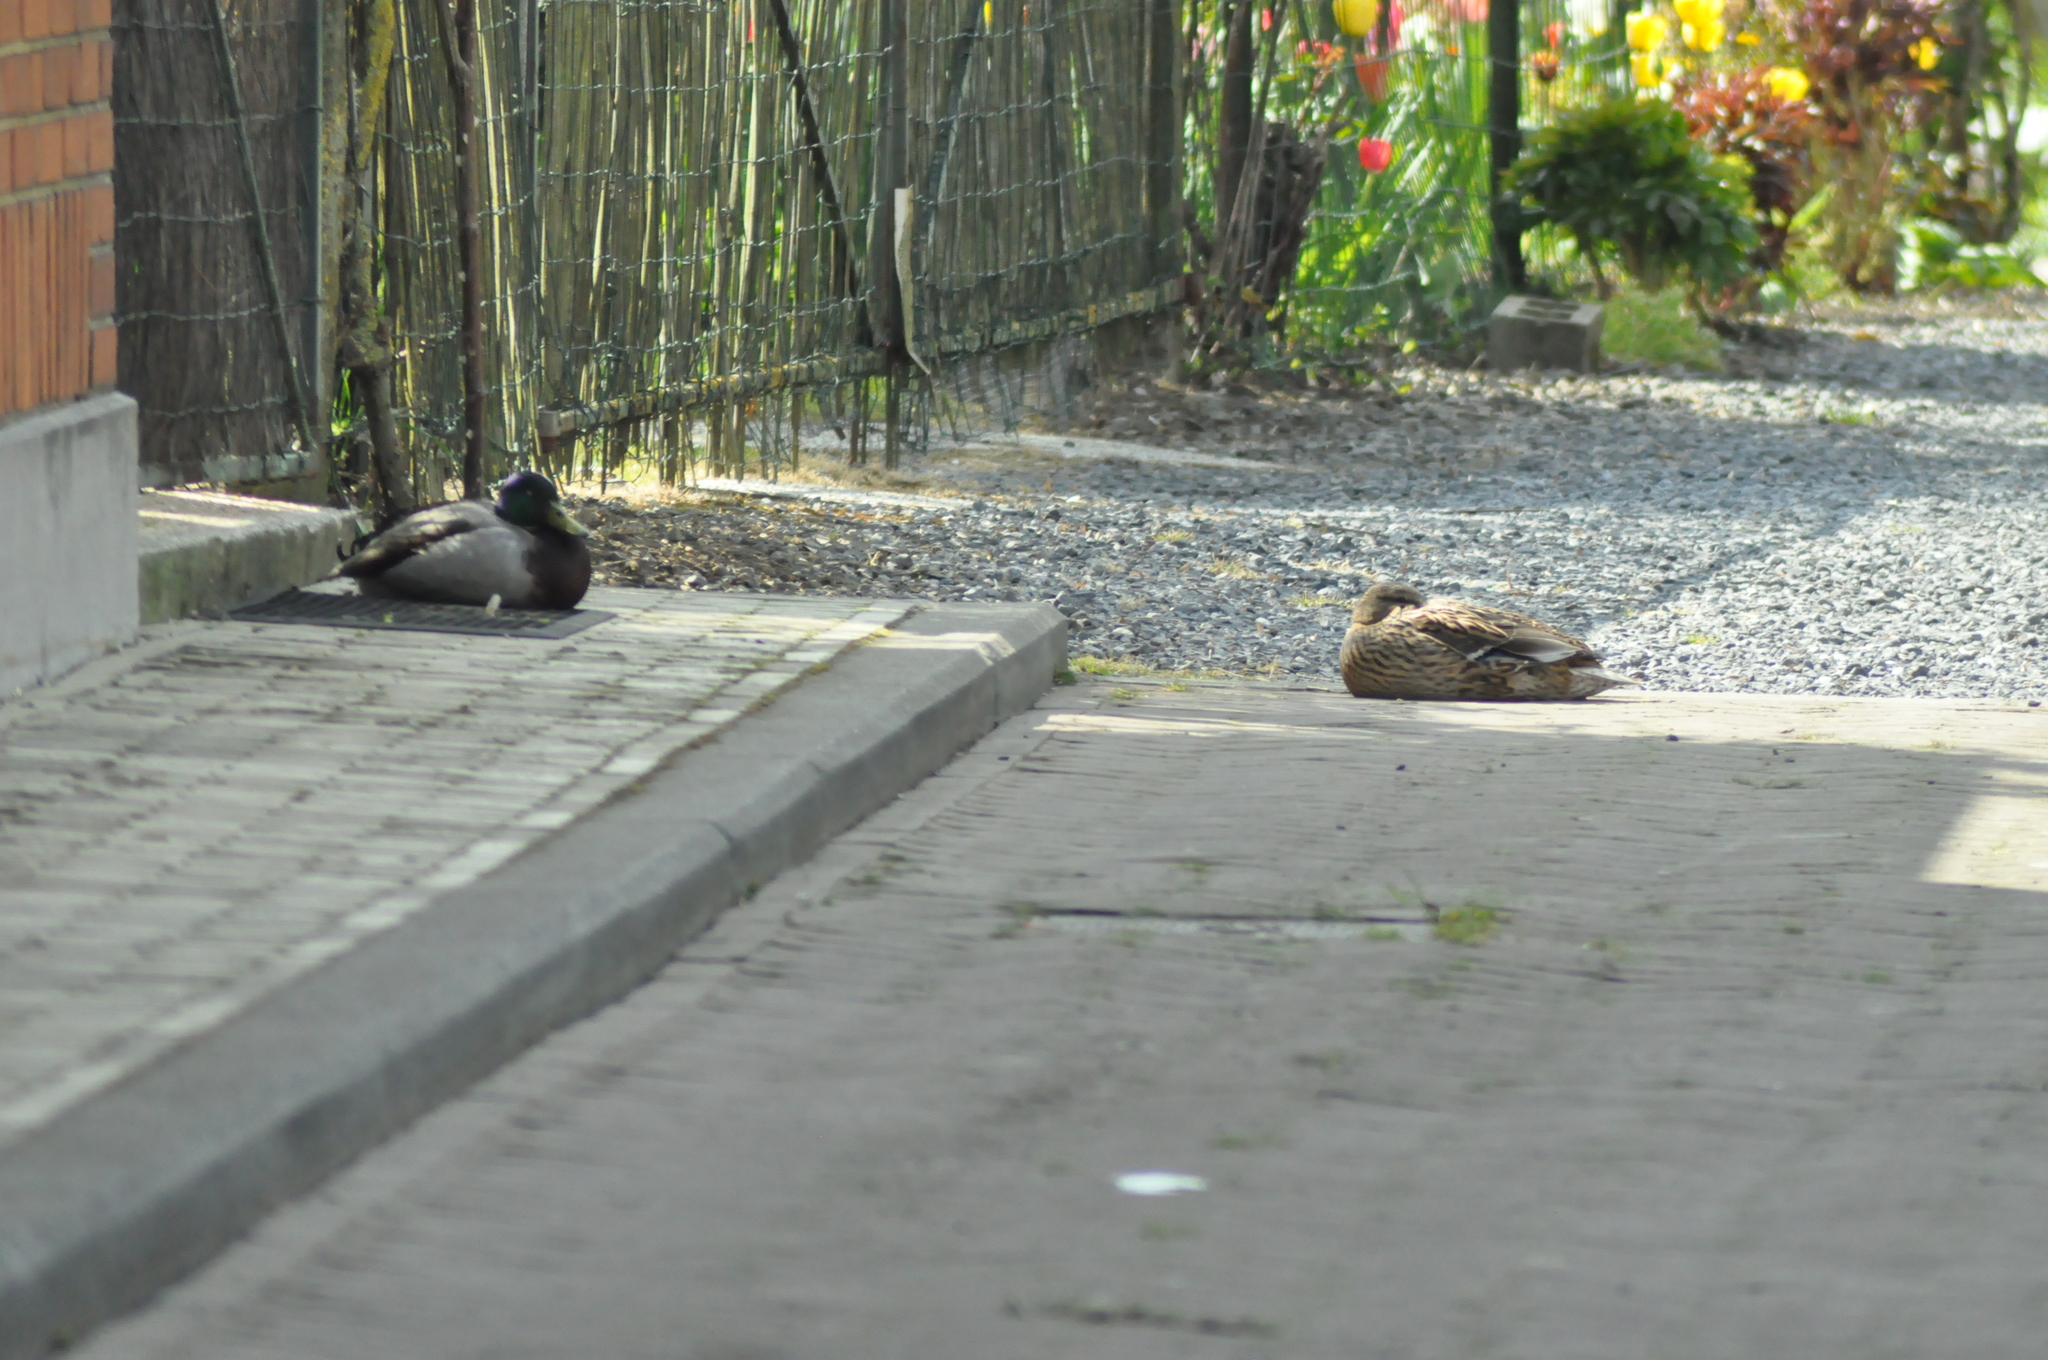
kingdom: Animalia
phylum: Chordata
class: Aves
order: Anseriformes
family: Anatidae
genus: Anas
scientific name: Anas platyrhynchos
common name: Mallard
